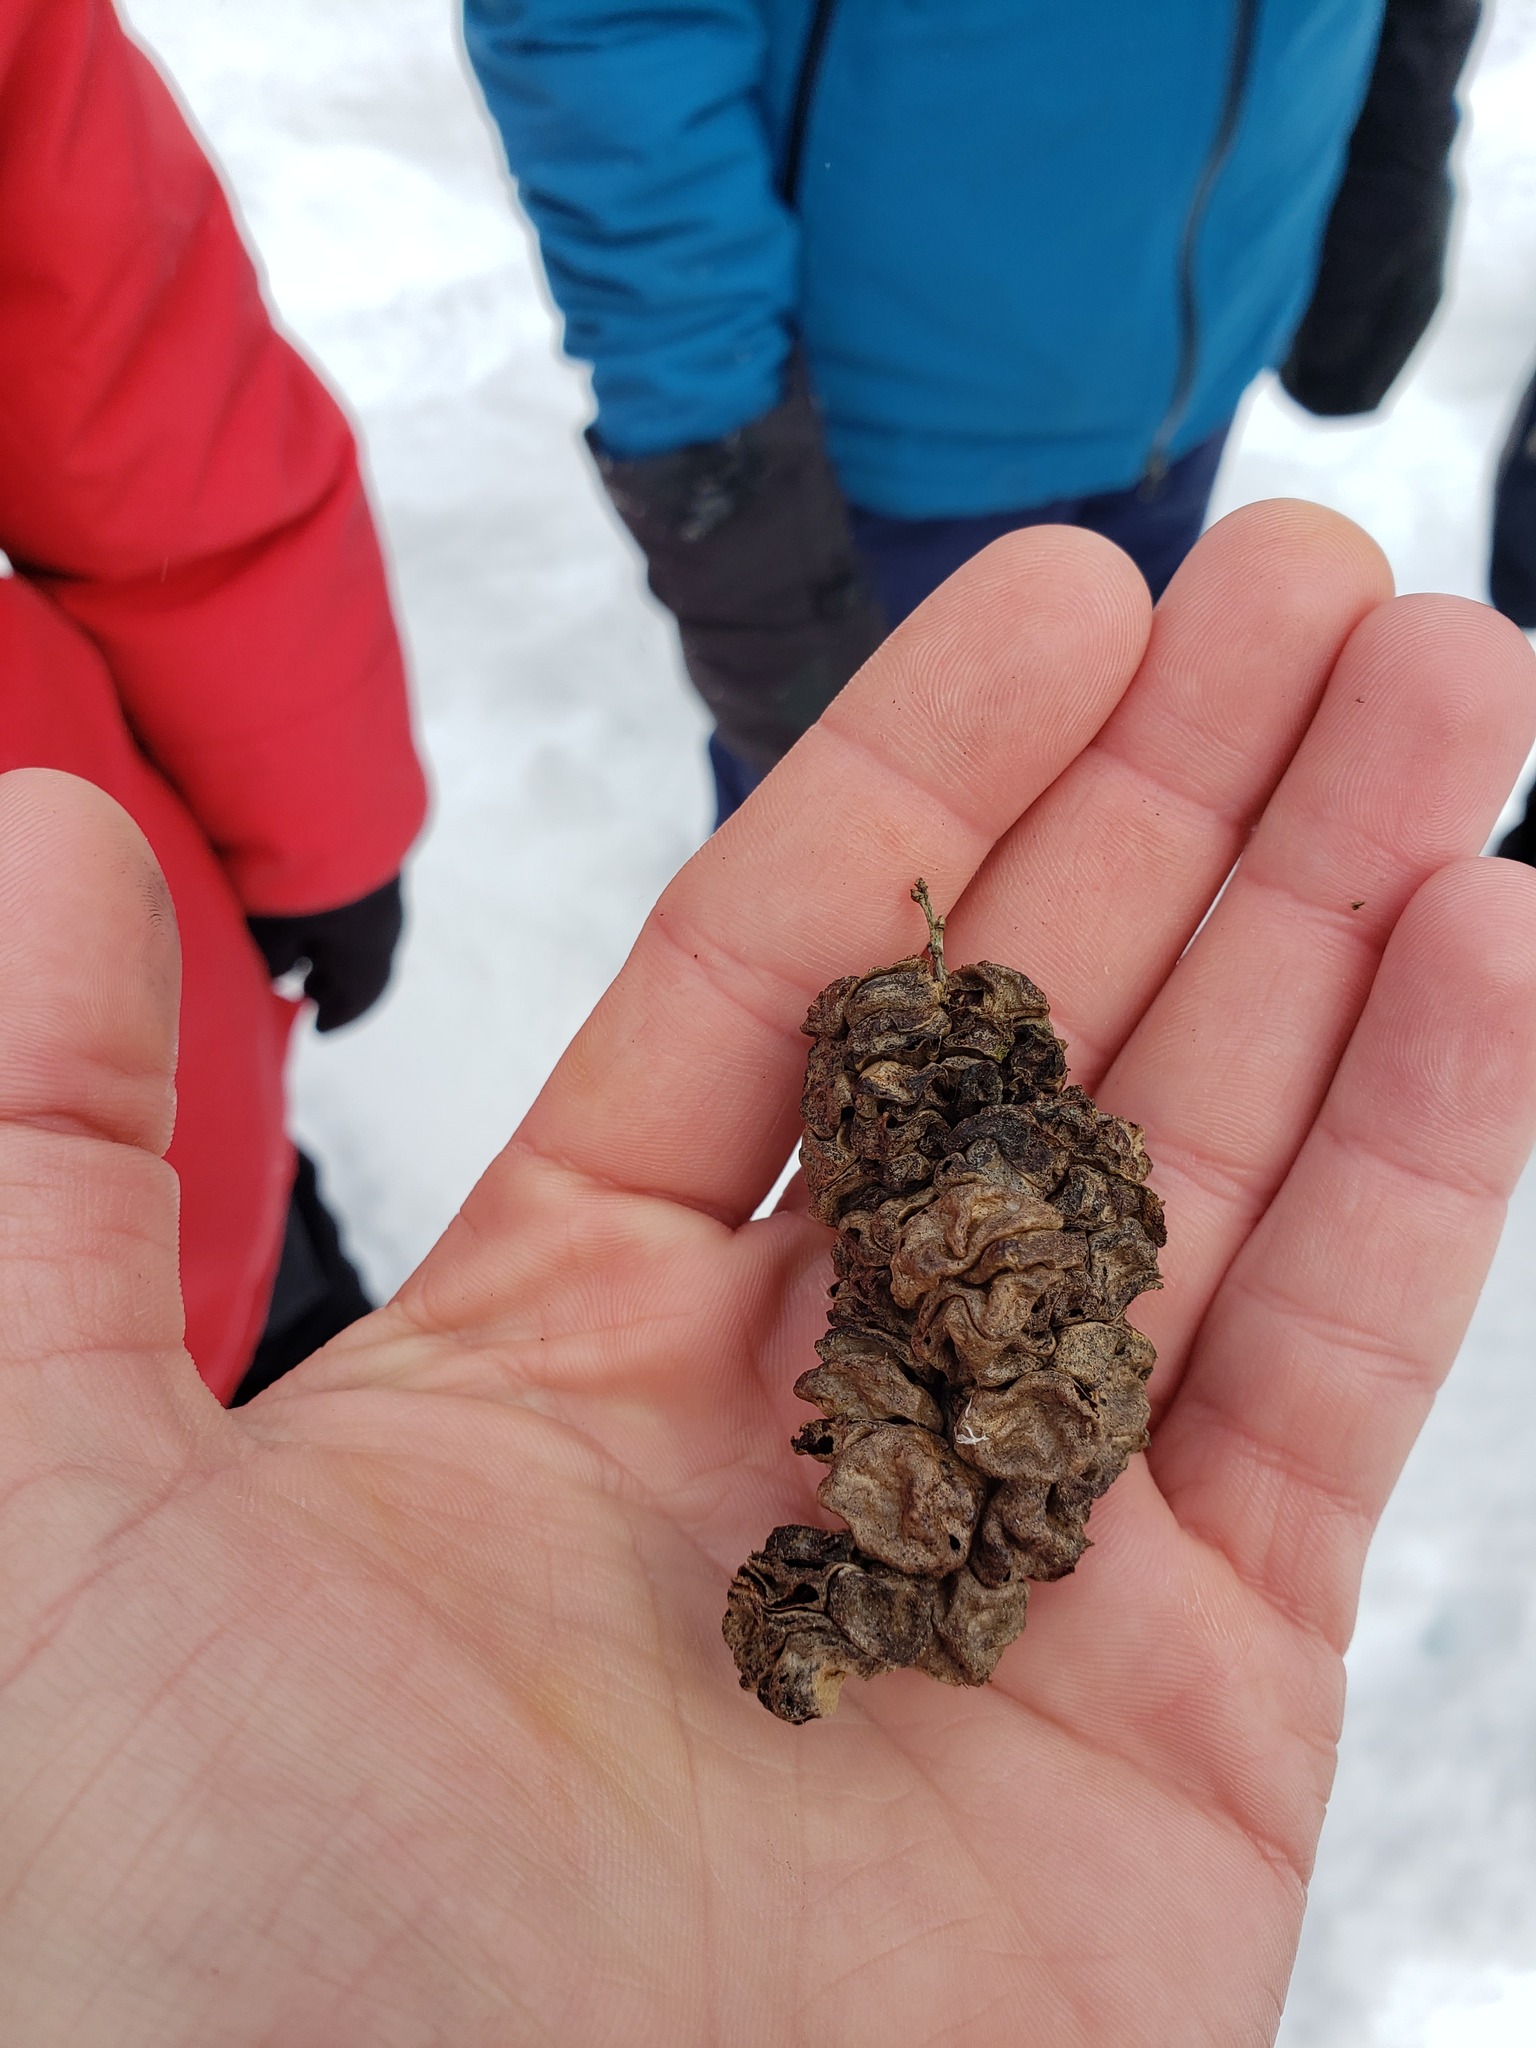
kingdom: Animalia
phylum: Arthropoda
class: Insecta
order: Hymenoptera
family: Cynipidae
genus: Trigonaspis
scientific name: Trigonaspis quercusforticornis
